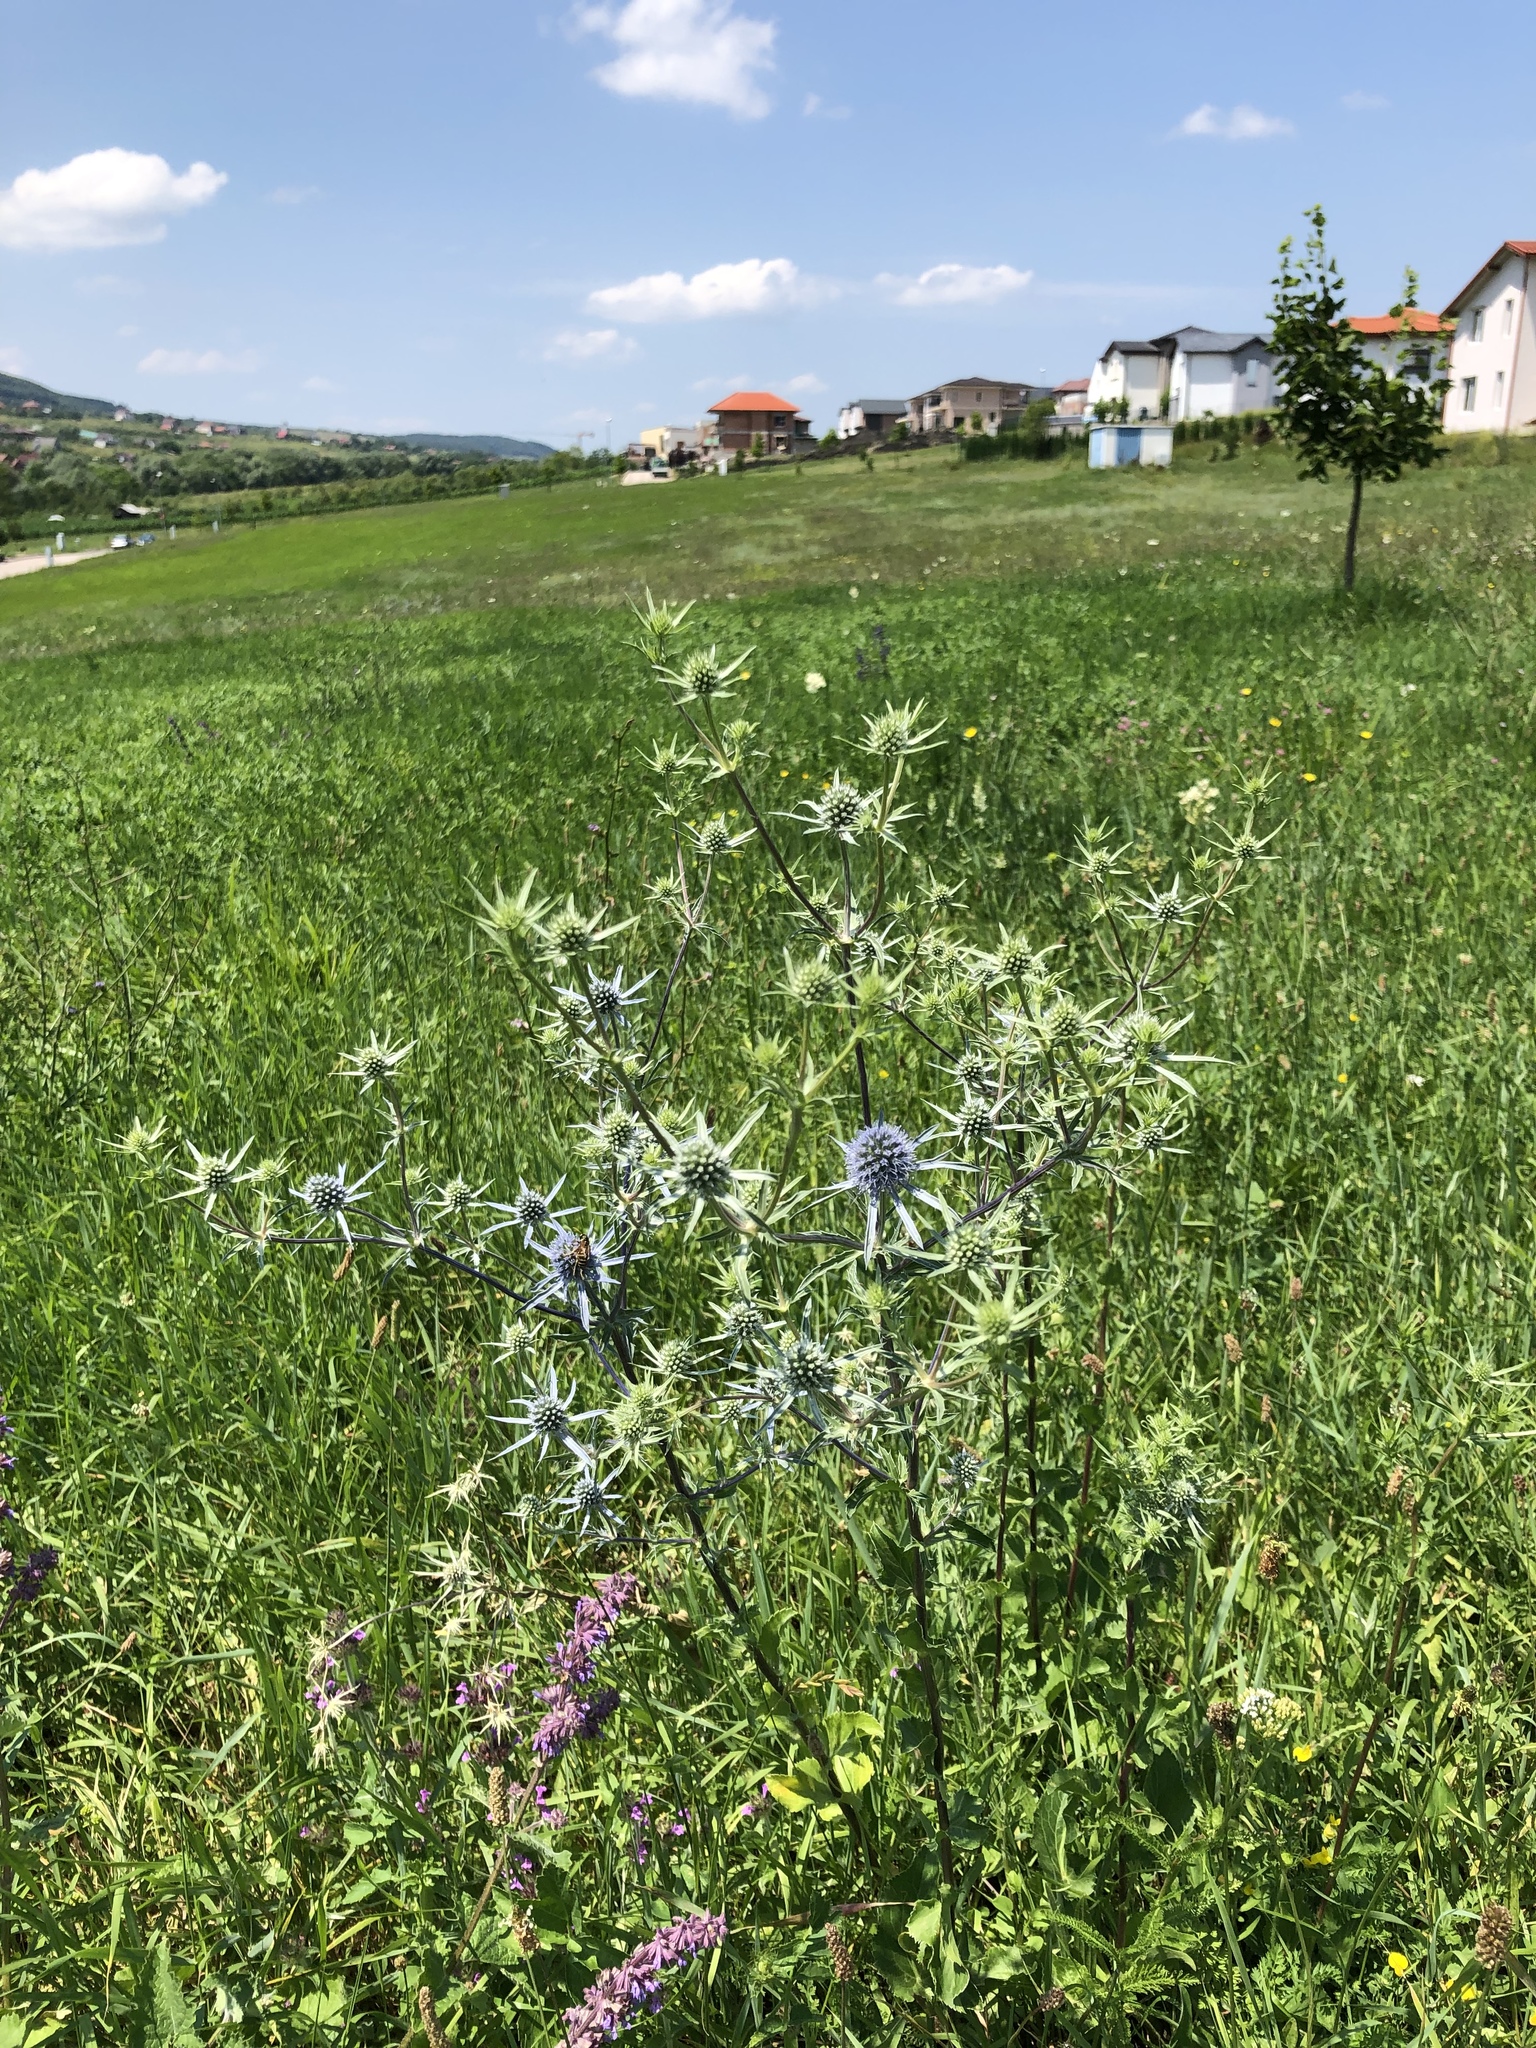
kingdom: Plantae
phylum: Tracheophyta
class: Magnoliopsida
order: Apiales
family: Apiaceae
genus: Eryngium
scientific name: Eryngium planum
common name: Blue eryngo
